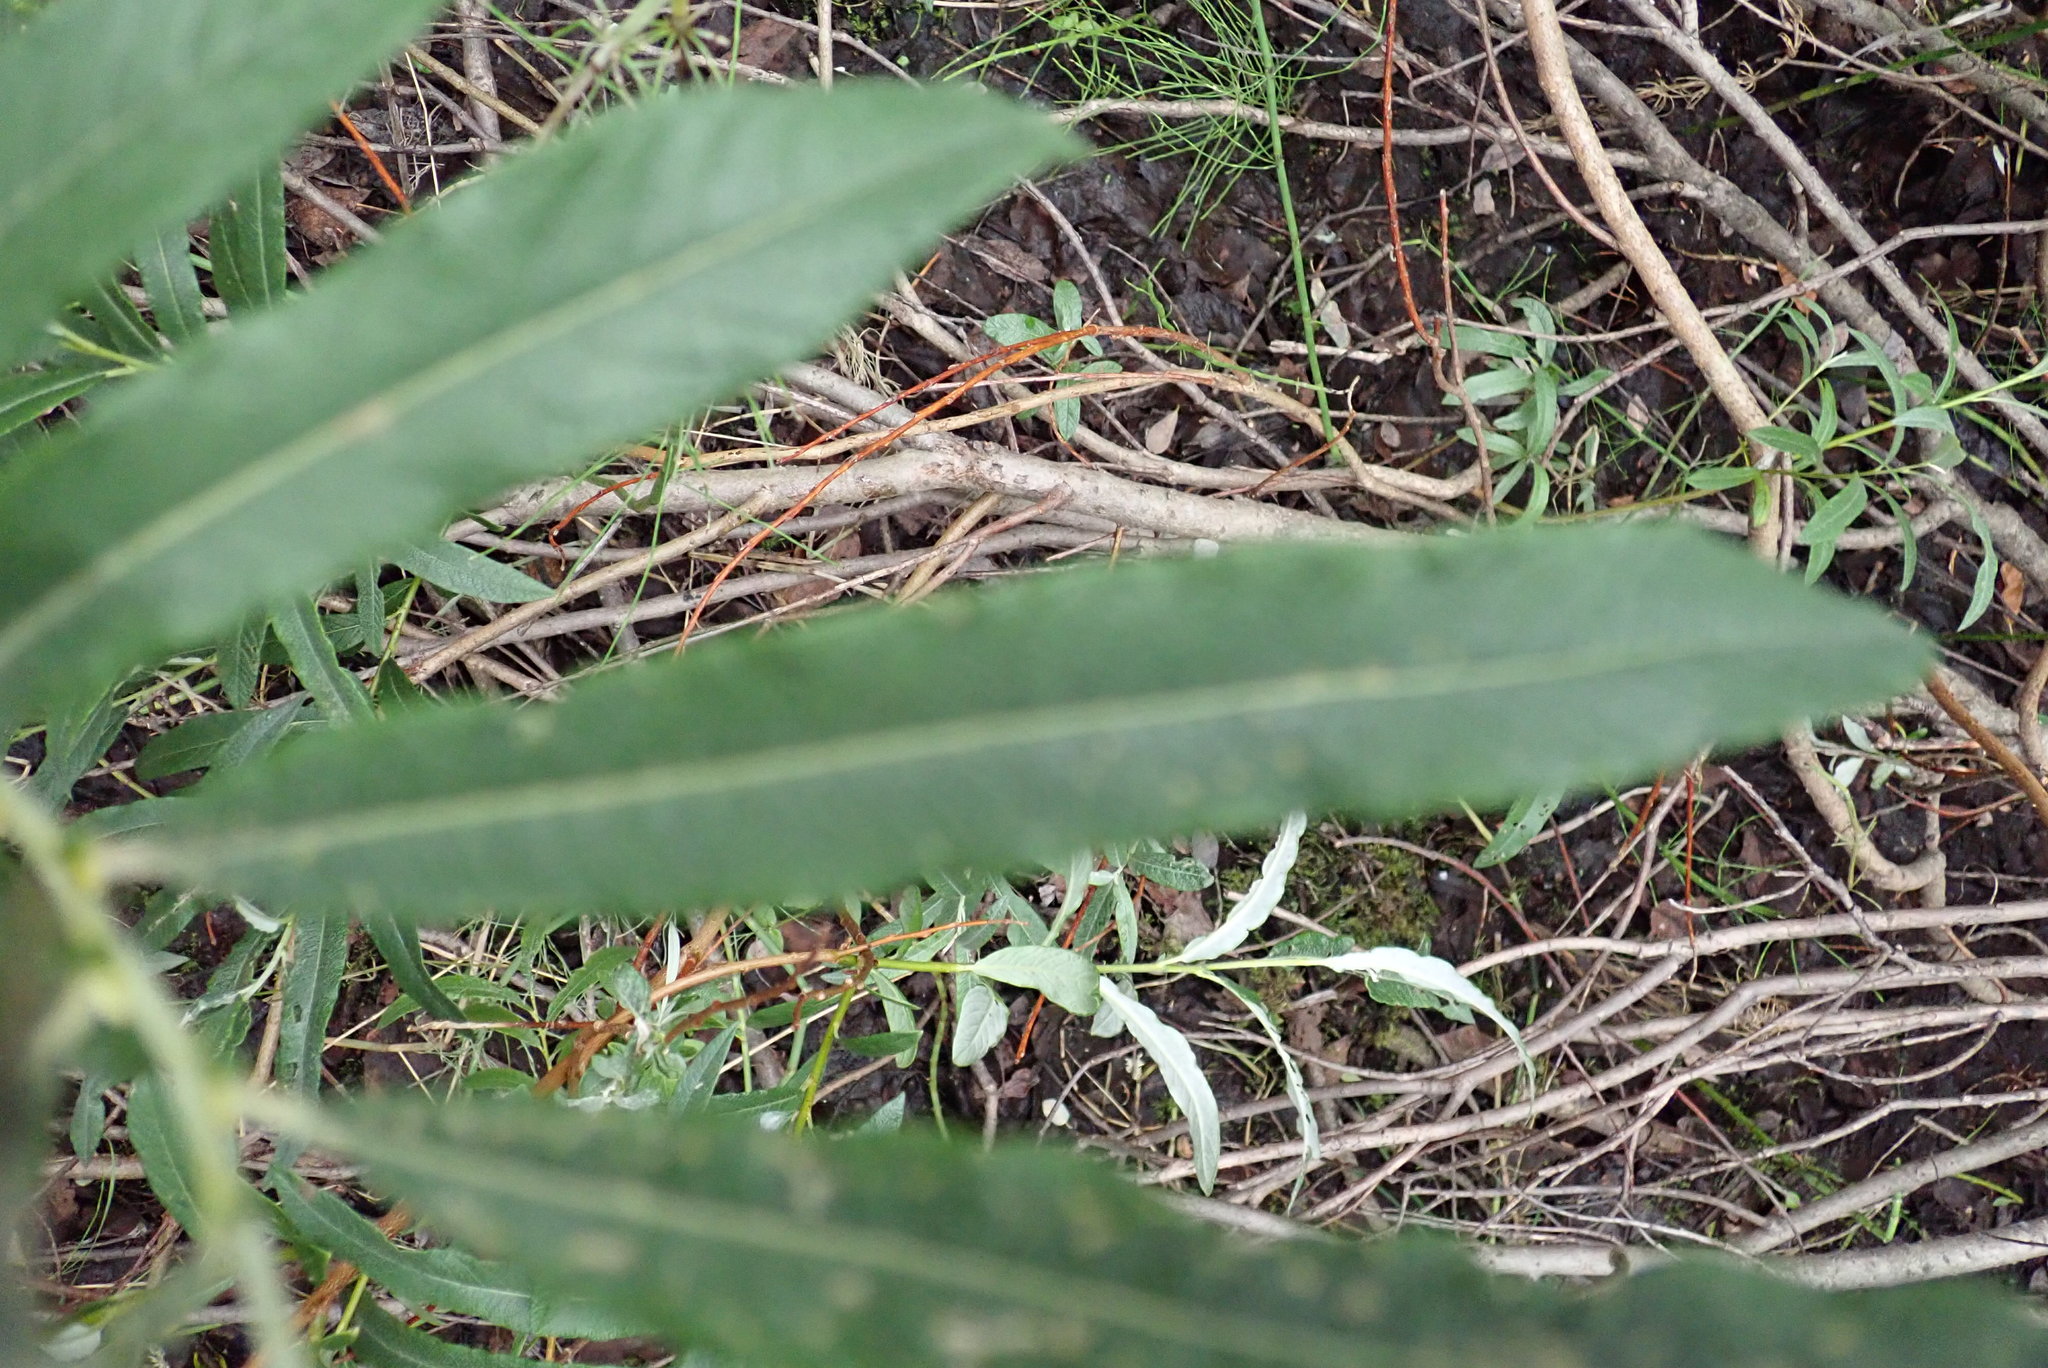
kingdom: Plantae
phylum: Tracheophyta
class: Magnoliopsida
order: Malpighiales
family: Salicaceae
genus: Salix
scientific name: Salix pellita
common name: Satiny willow
